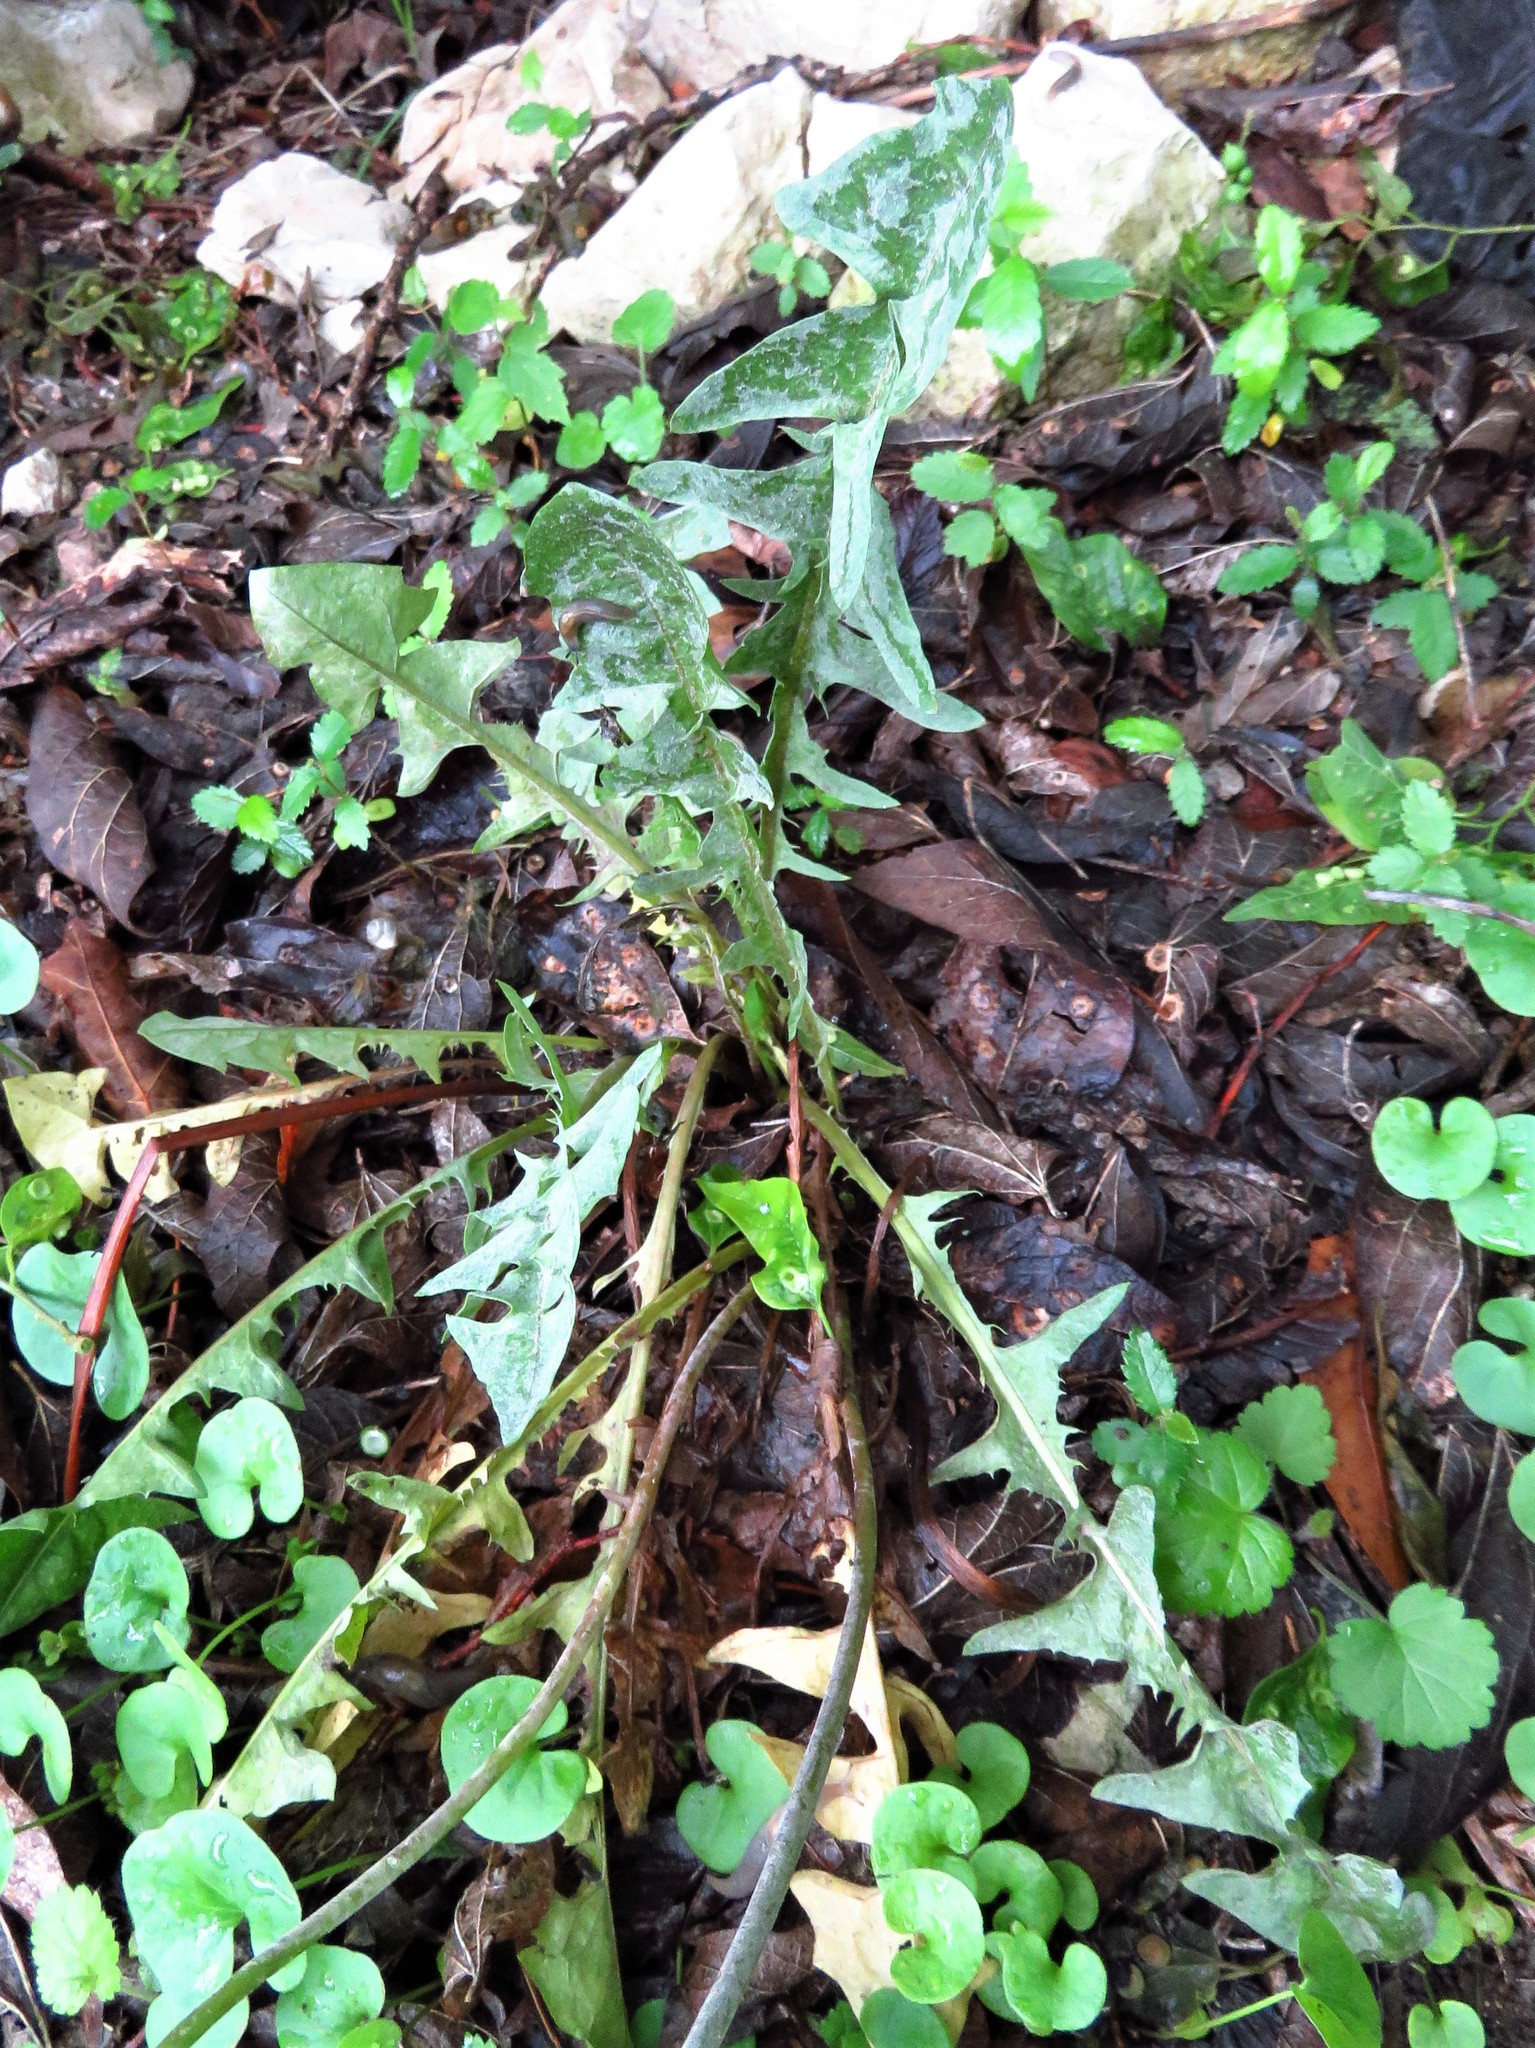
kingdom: Plantae
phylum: Tracheophyta
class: Magnoliopsida
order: Asterales
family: Asteraceae
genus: Taraxacum
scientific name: Taraxacum officinale
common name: Common dandelion
